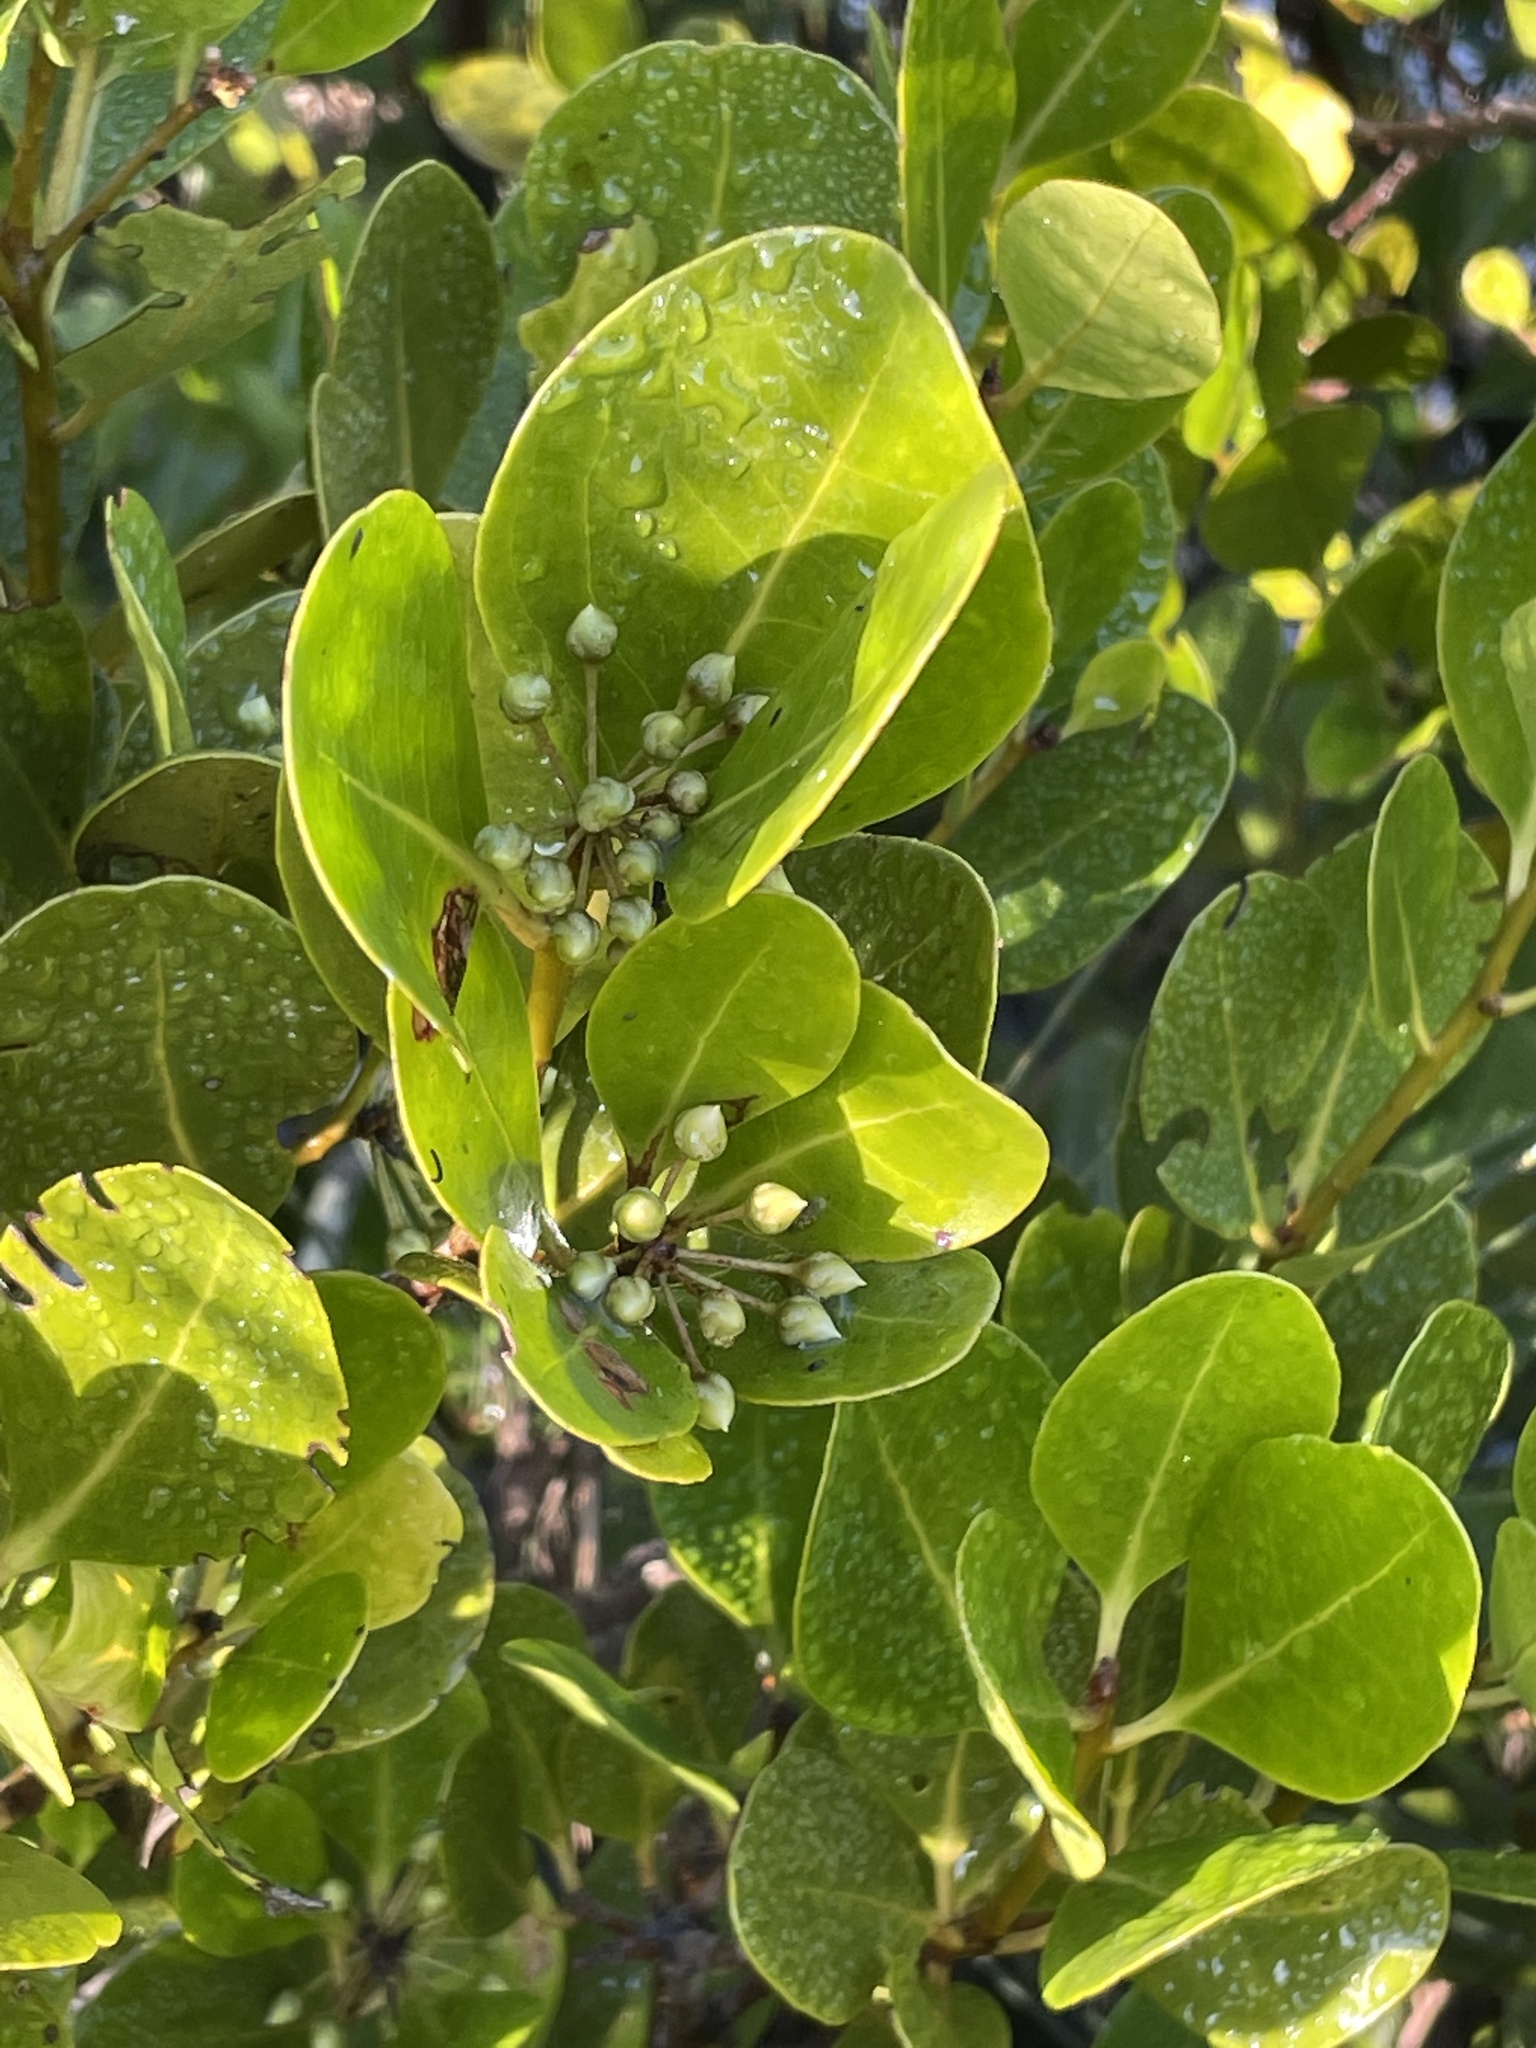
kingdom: Plantae
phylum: Tracheophyta
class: Magnoliopsida
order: Ericales
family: Primulaceae
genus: Aegiceras
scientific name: Aegiceras corniculatum
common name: River mangrove
